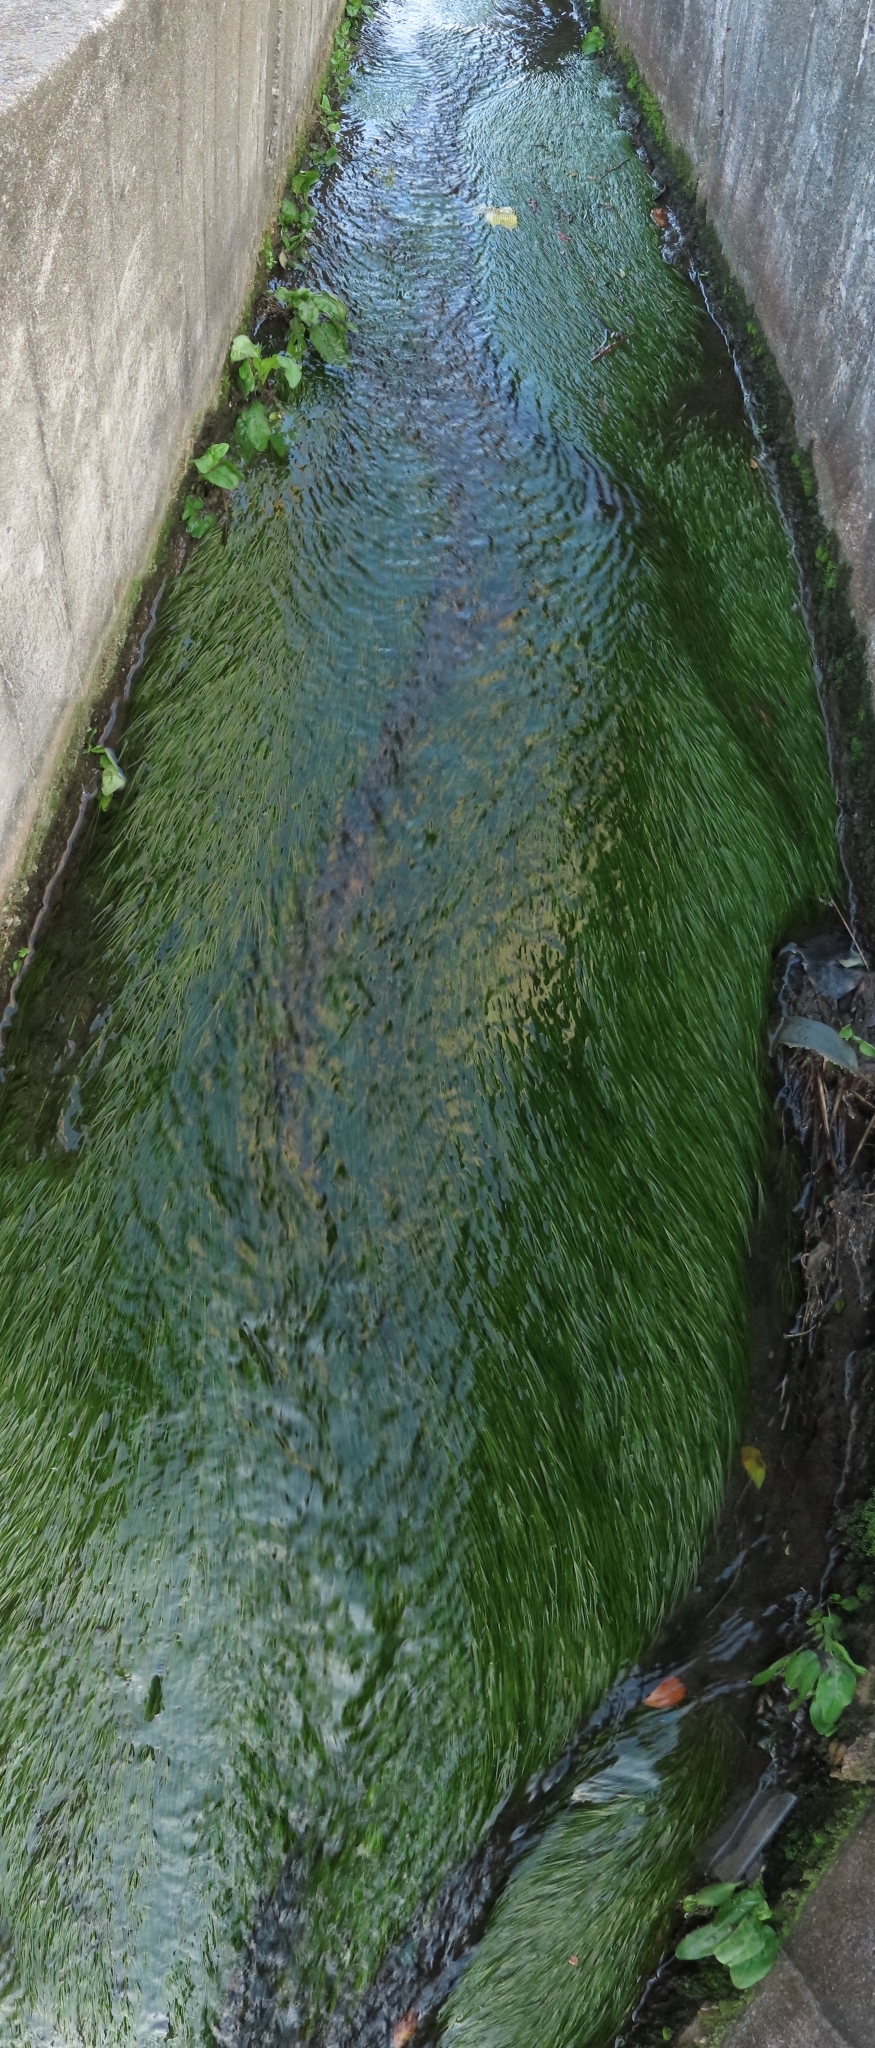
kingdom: Plantae
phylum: Tracheophyta
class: Liliopsida
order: Alismatales
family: Potamogetonaceae
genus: Potamogeton
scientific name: Potamogeton pusillus
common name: Lesser pondweed
